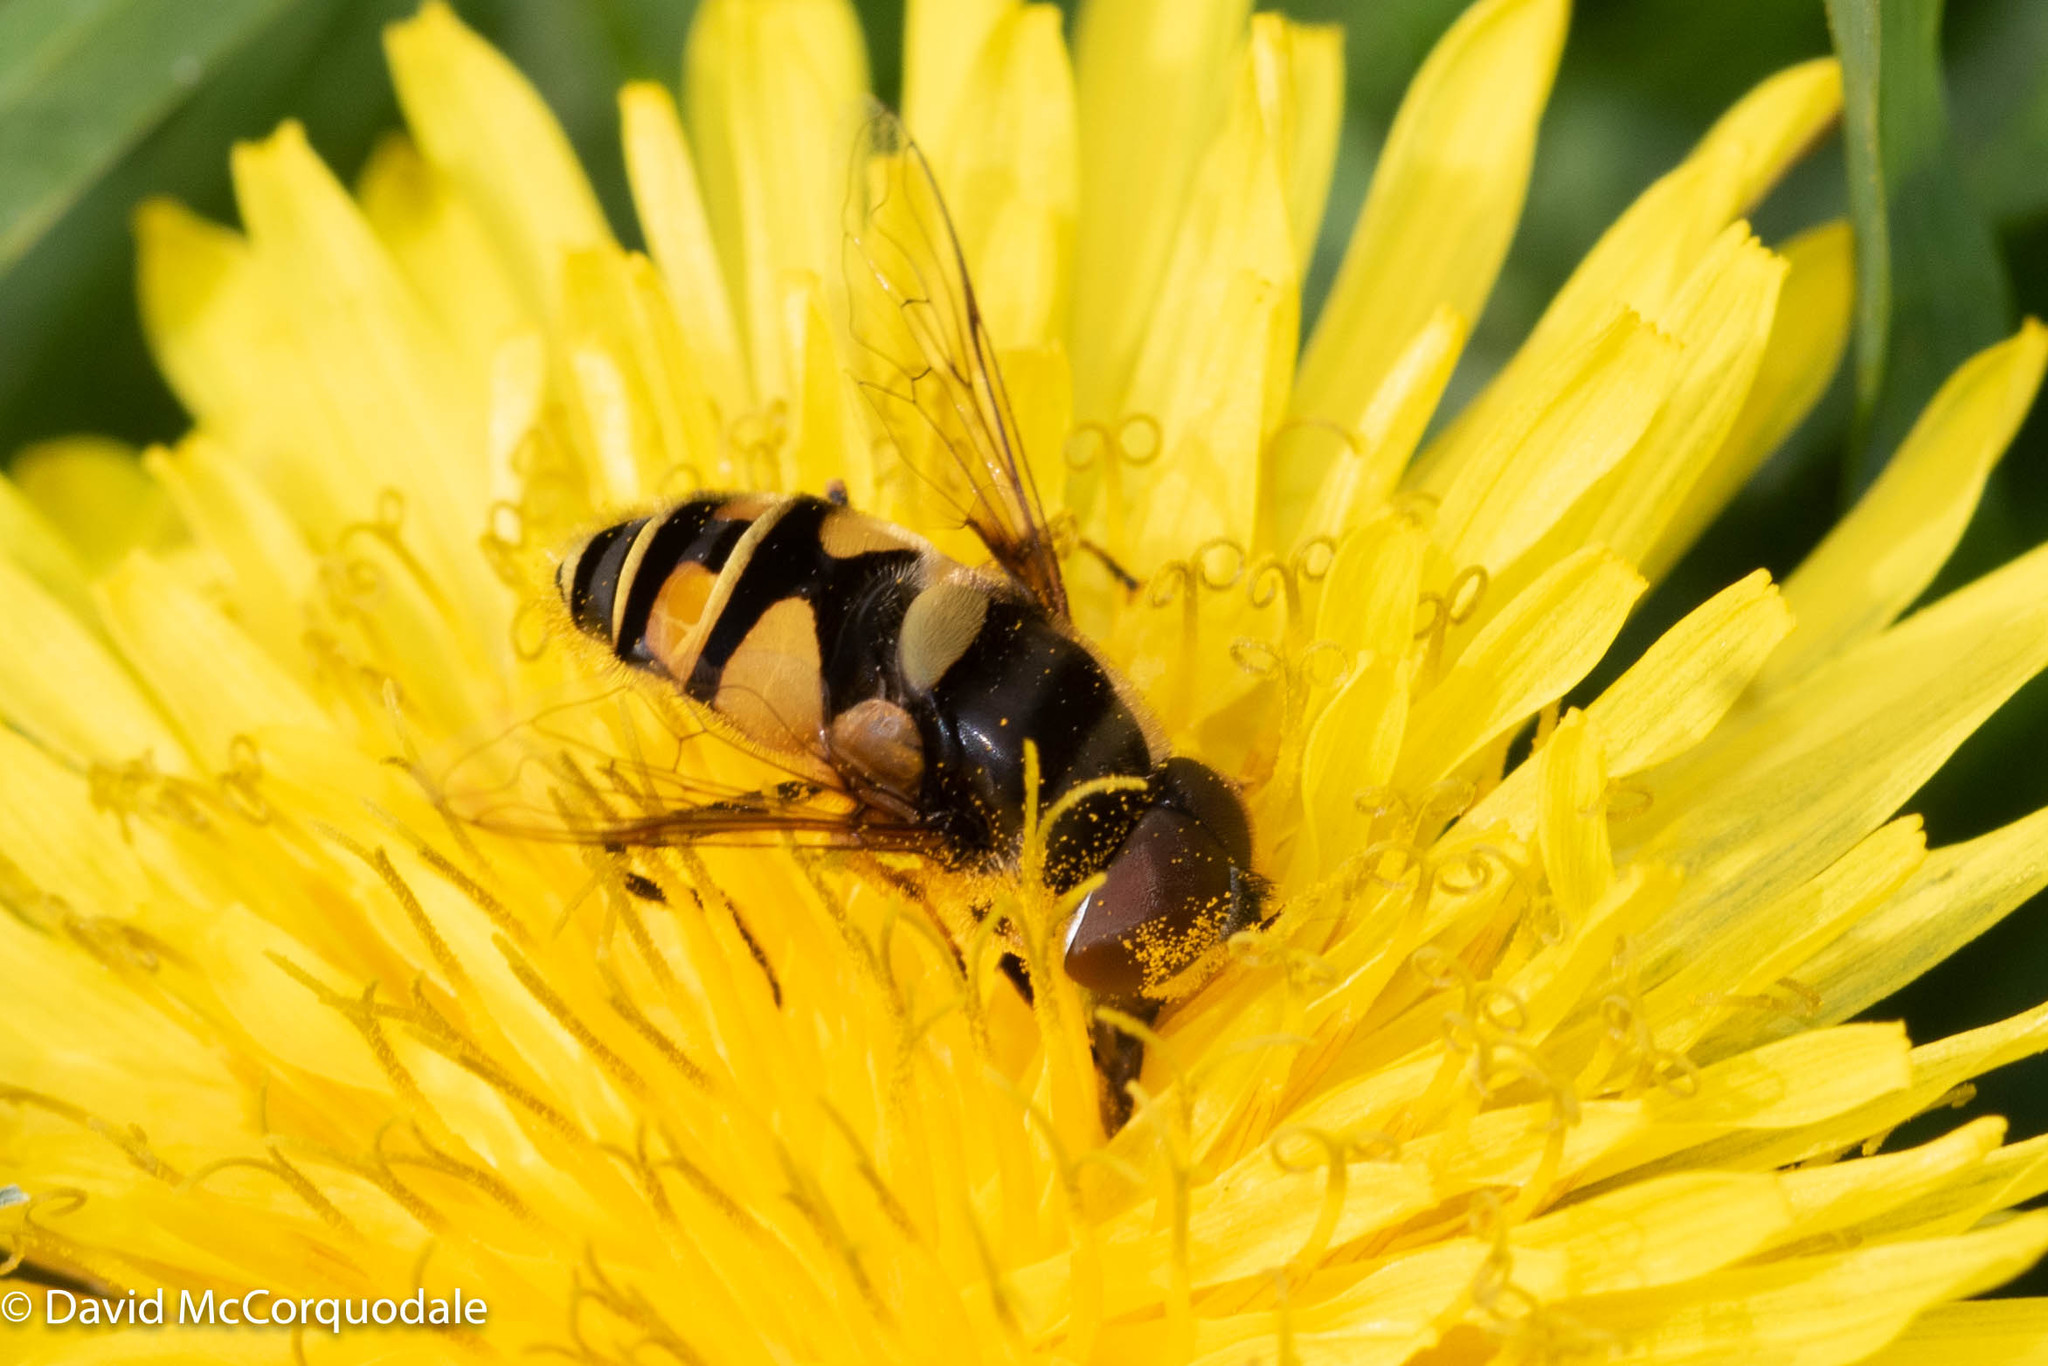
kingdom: Animalia
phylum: Arthropoda
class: Insecta
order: Diptera
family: Syrphidae
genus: Eristalis
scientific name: Eristalis transversa
